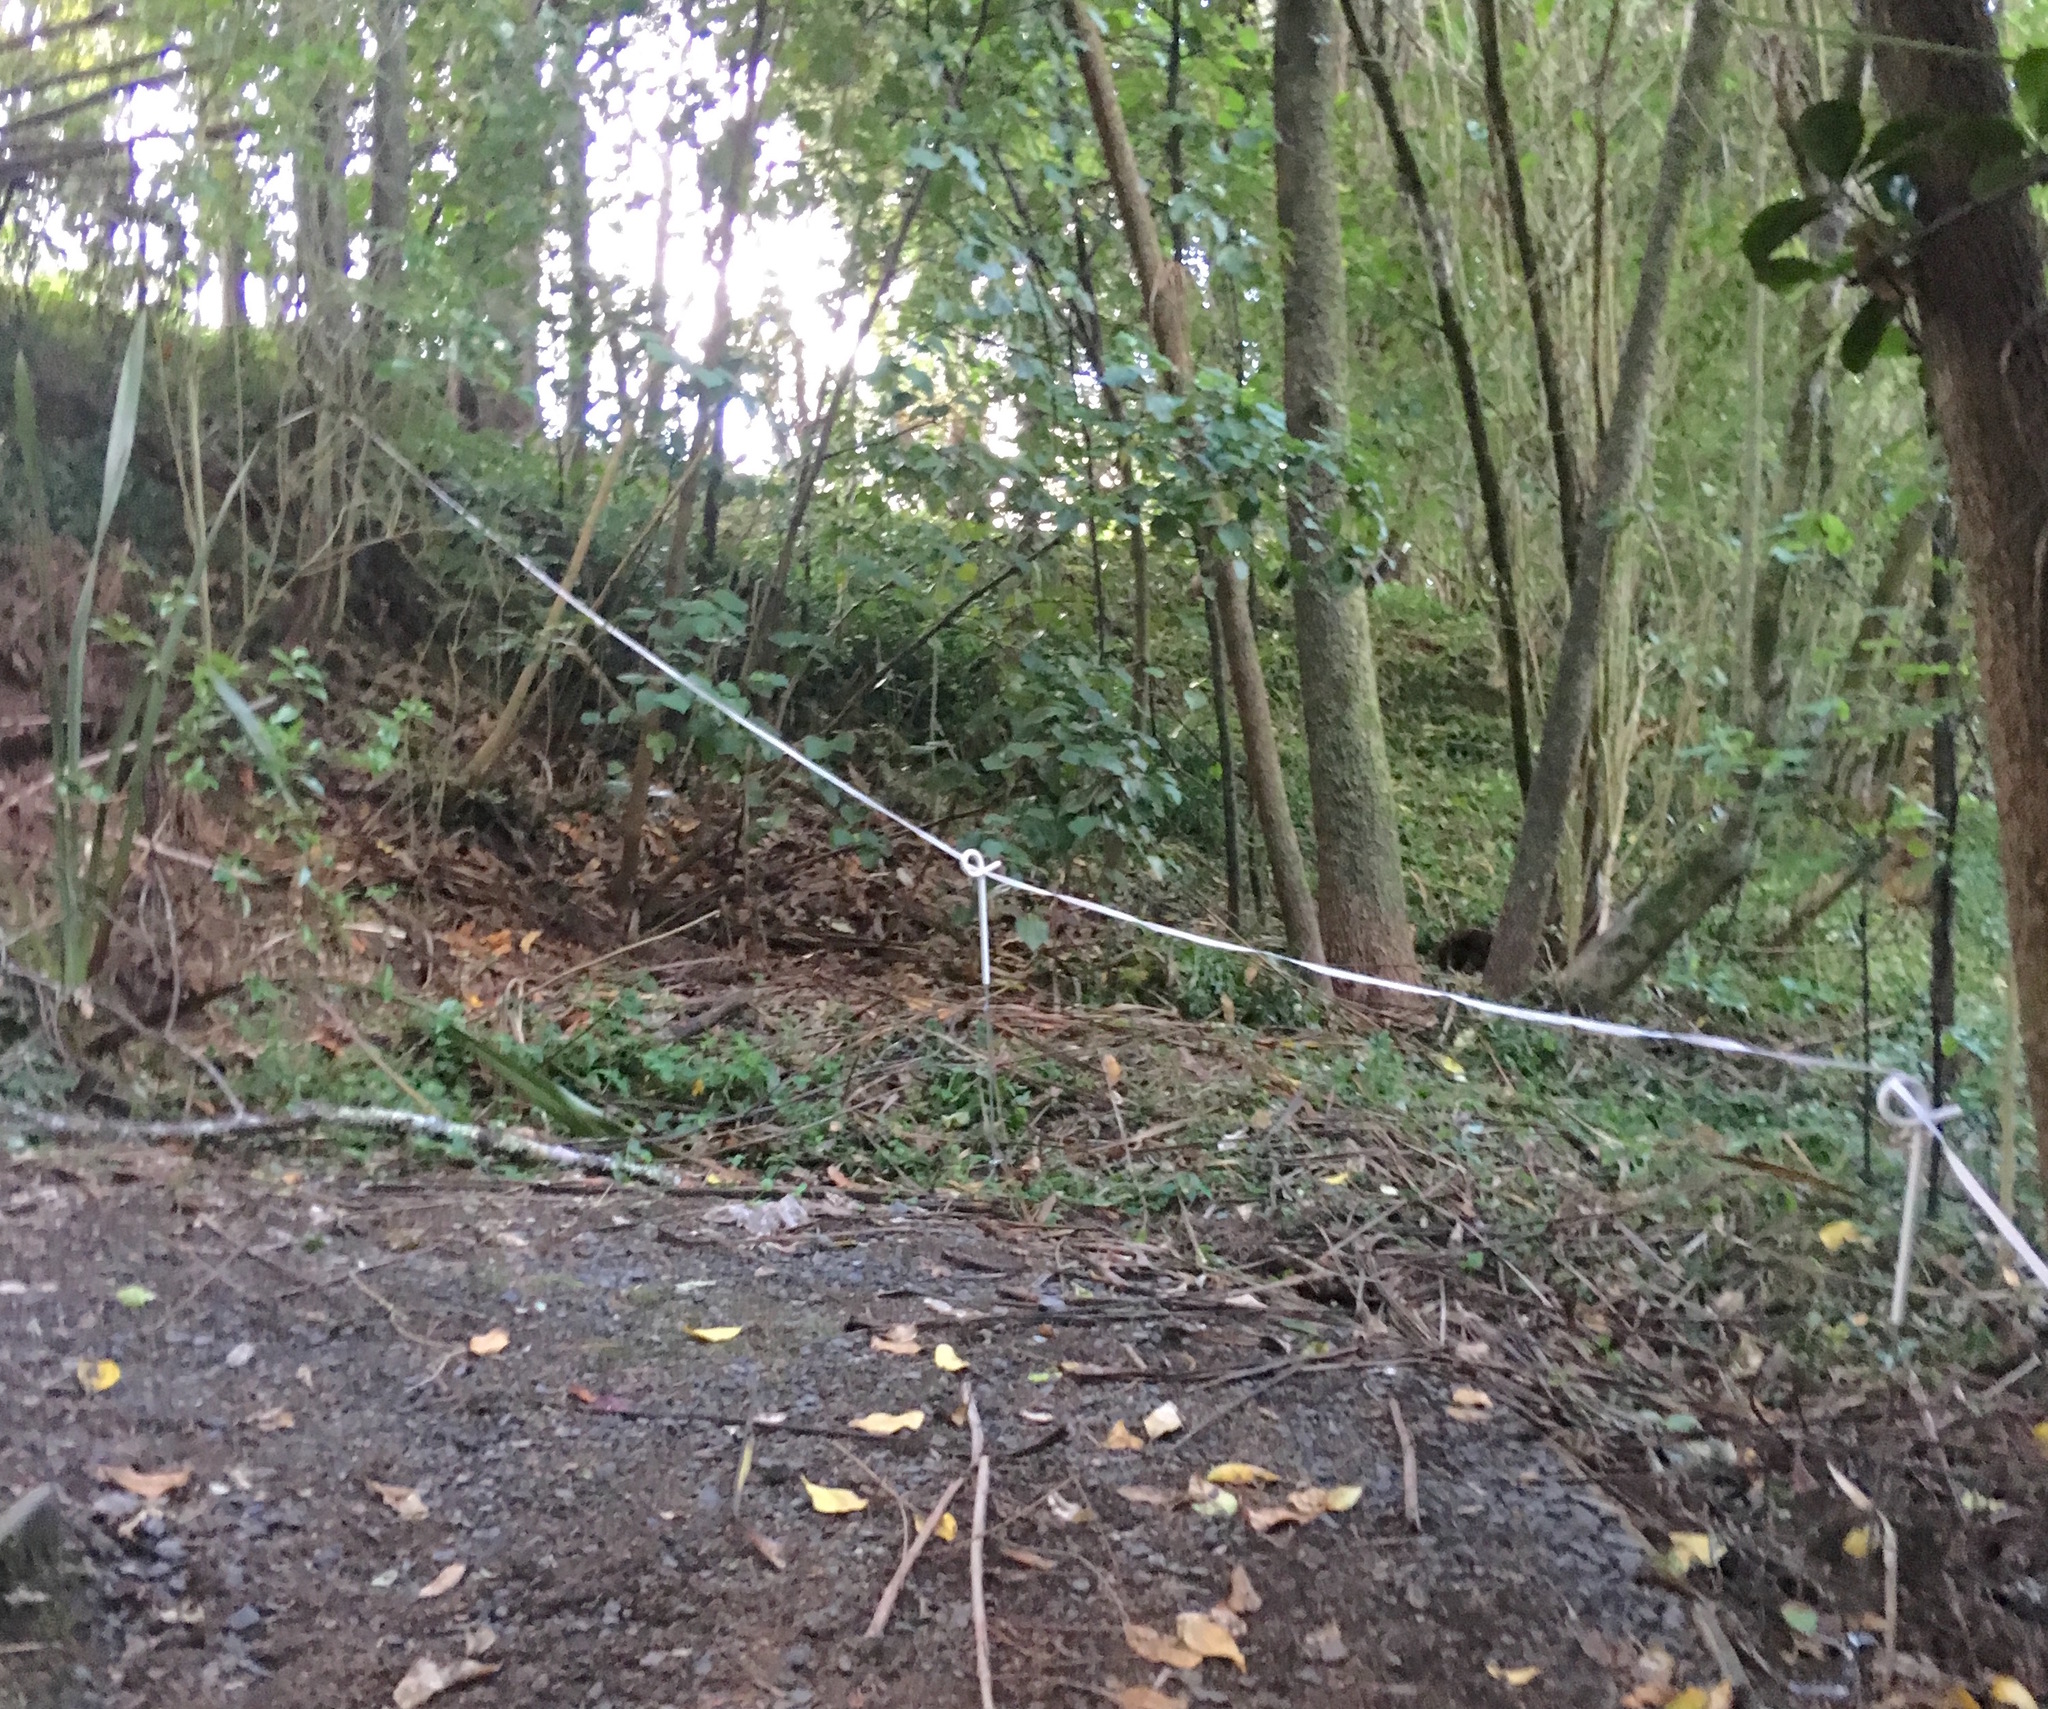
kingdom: Plantae
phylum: Tracheophyta
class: Liliopsida
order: Asparagales
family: Asparagaceae
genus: Cordyline
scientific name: Cordyline australis
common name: Cabbage-palm
